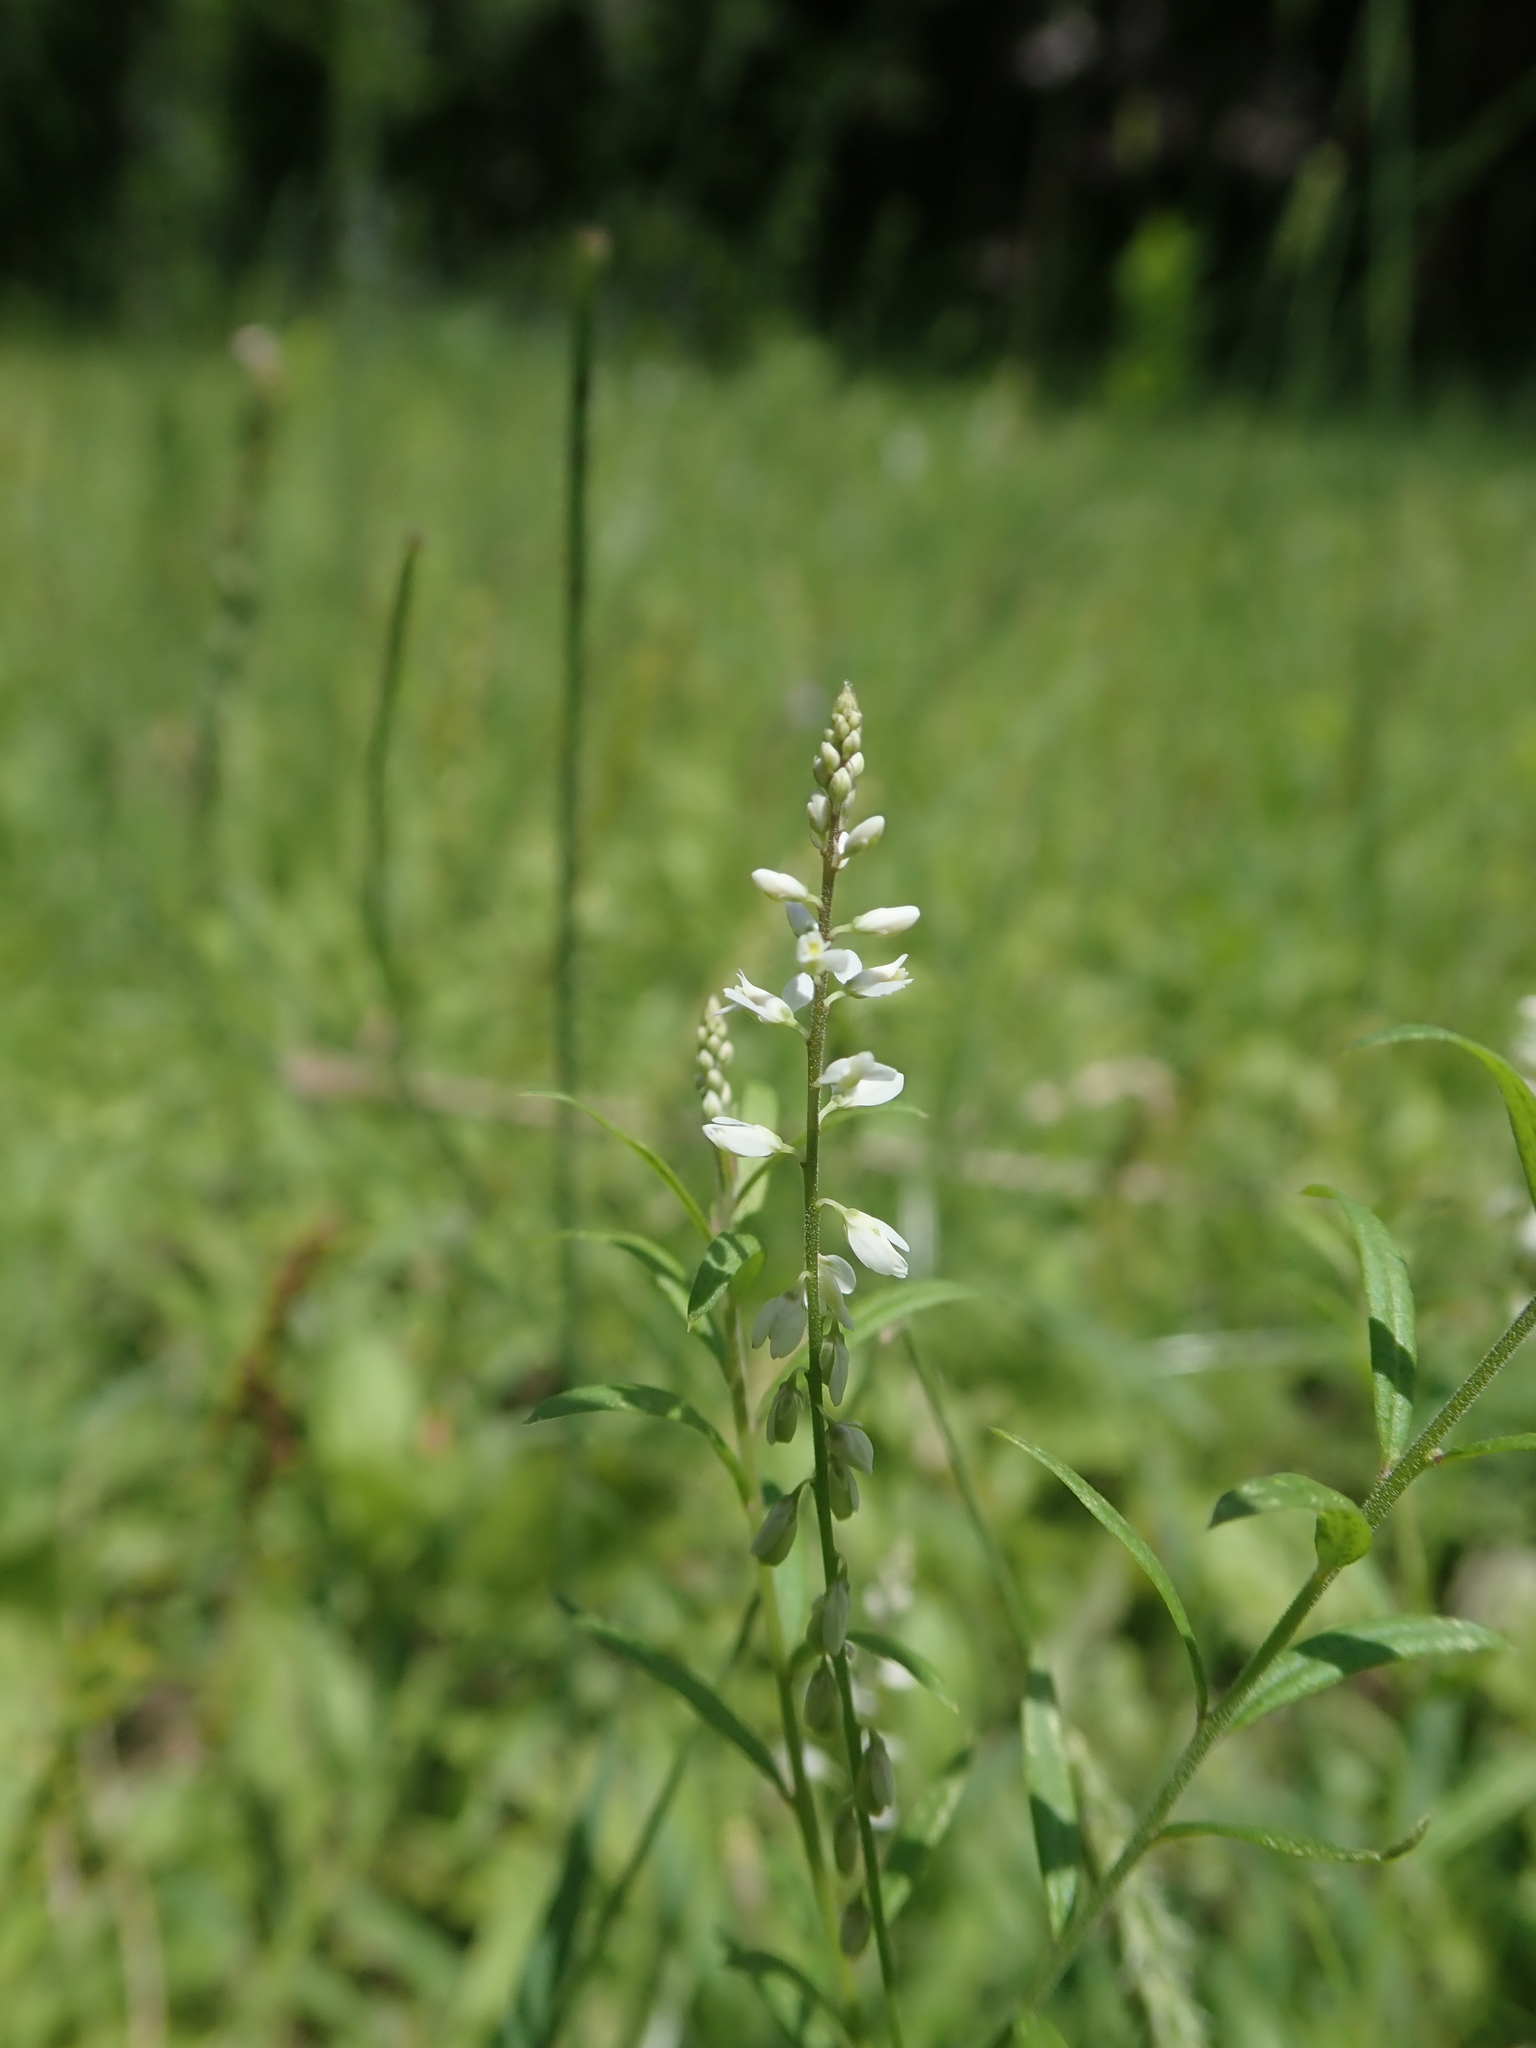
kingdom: Plantae
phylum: Tracheophyta
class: Magnoliopsida
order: Fabales
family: Polygalaceae
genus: Polygala
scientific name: Polygala paniculata
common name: Orosne
